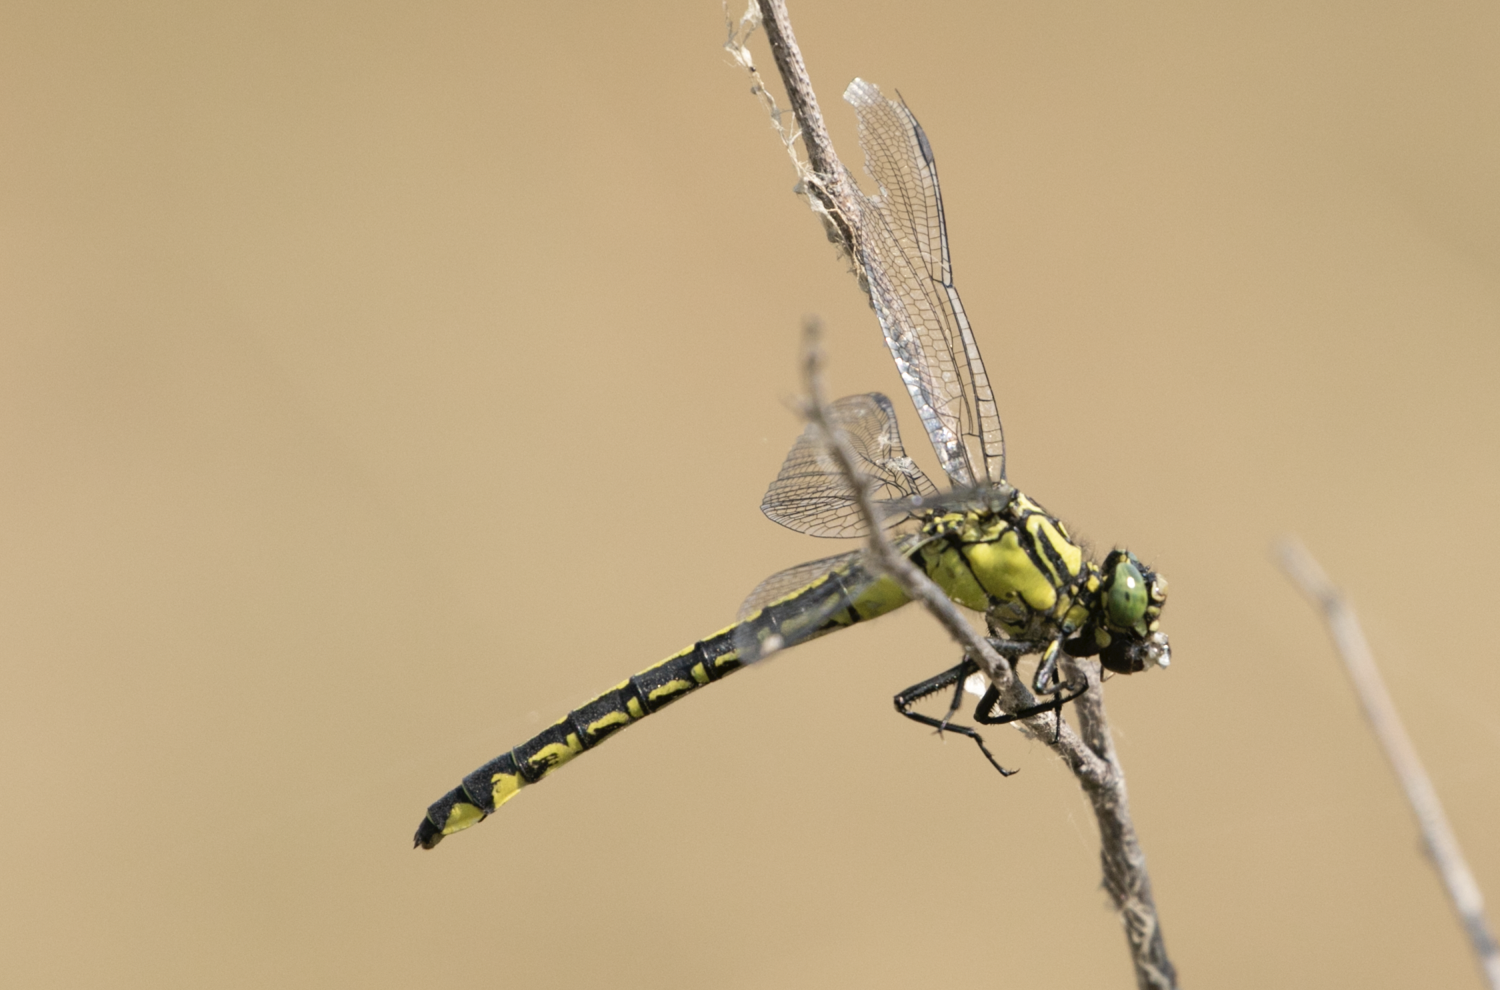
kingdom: Animalia
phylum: Arthropoda
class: Insecta
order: Odonata
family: Gomphidae
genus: Gomphus
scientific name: Gomphus vulgatissimus
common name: Club-tailed dragonfly
